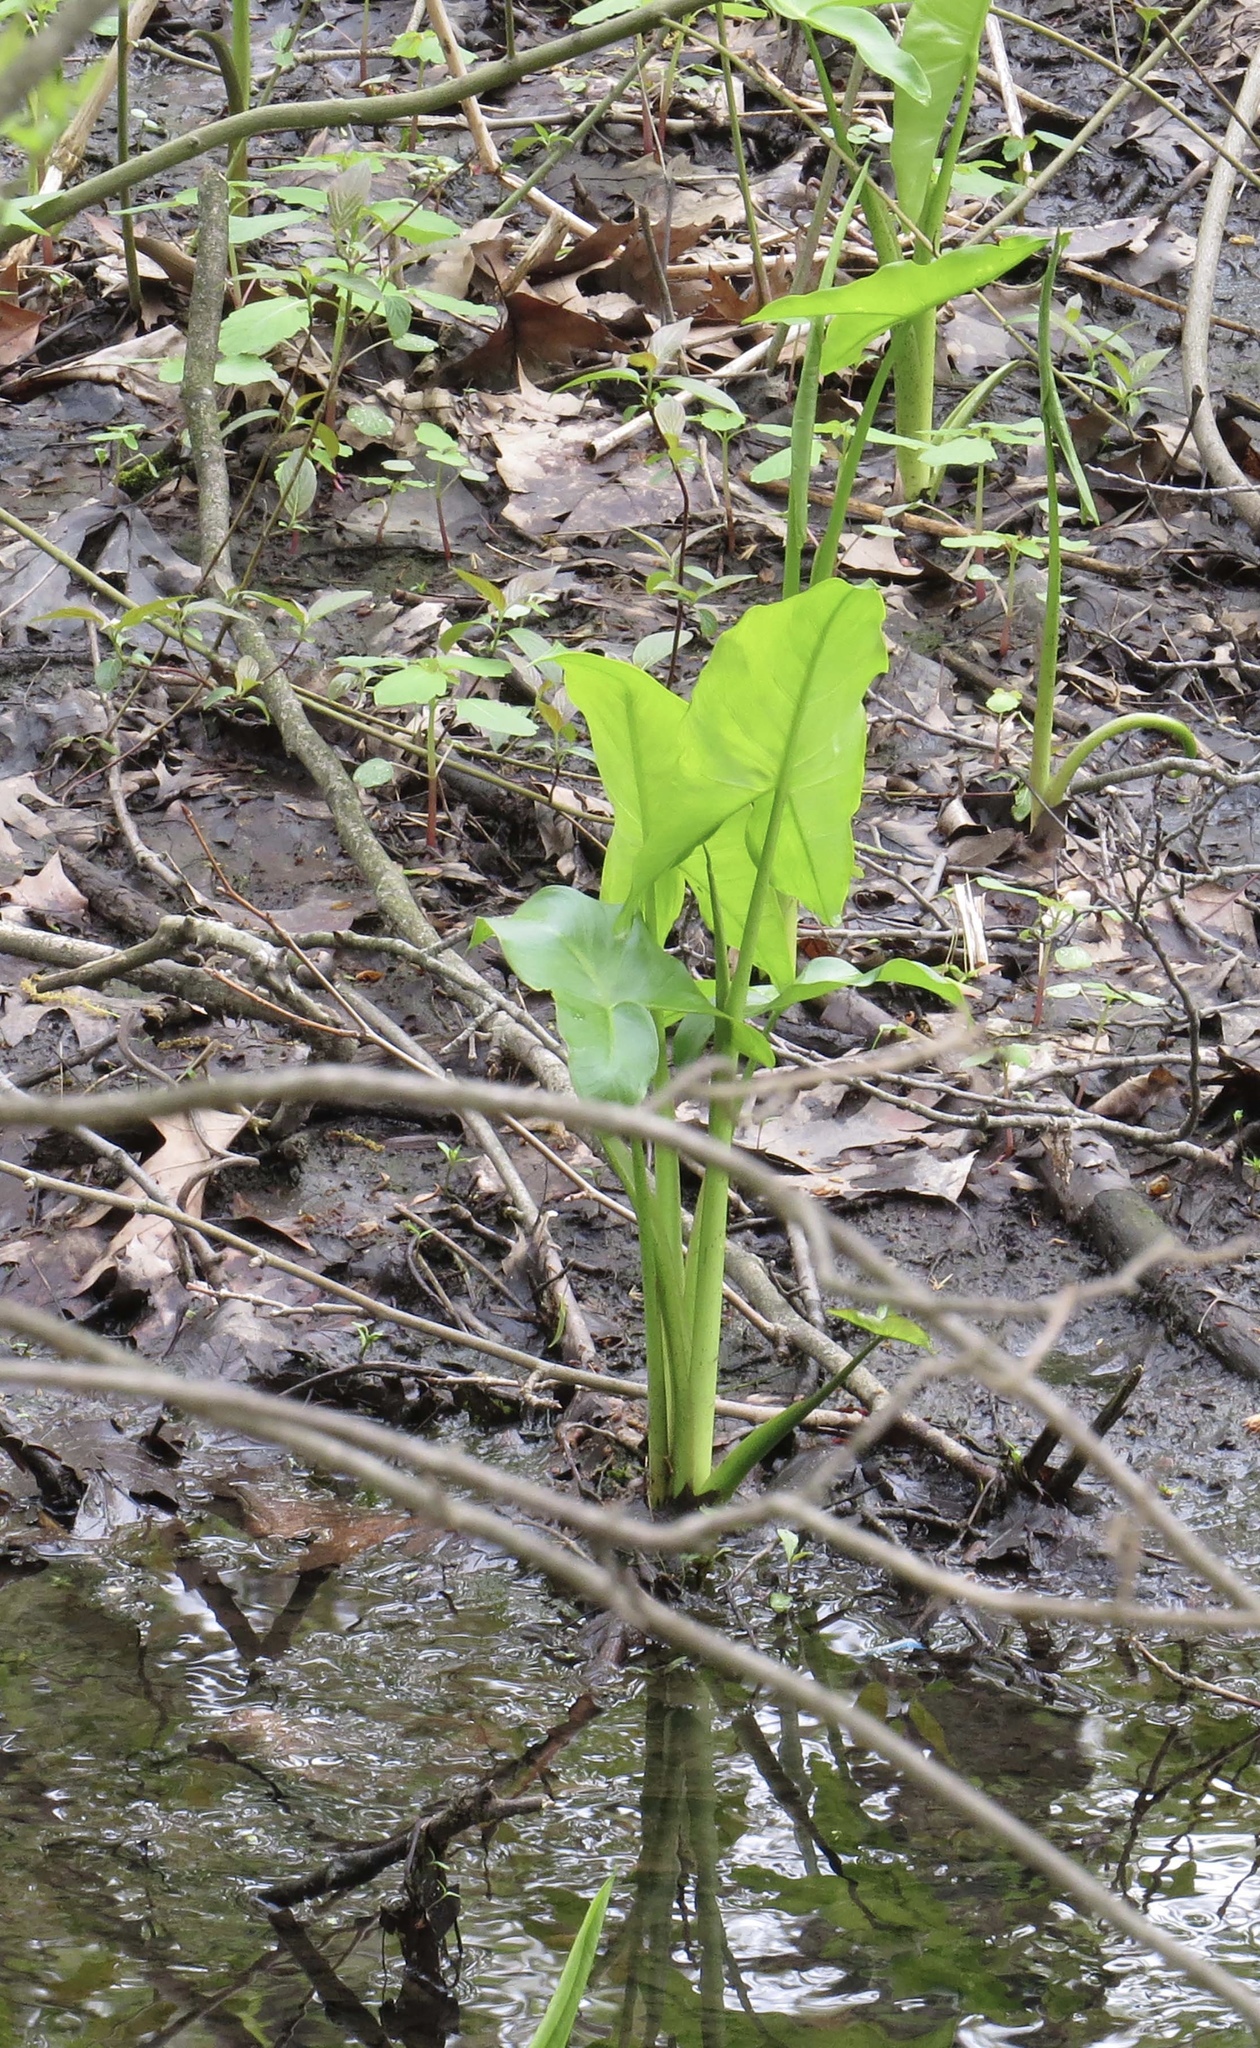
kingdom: Plantae
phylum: Tracheophyta
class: Liliopsida
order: Alismatales
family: Araceae
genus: Peltandra
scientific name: Peltandra virginica
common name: Arrow arum
